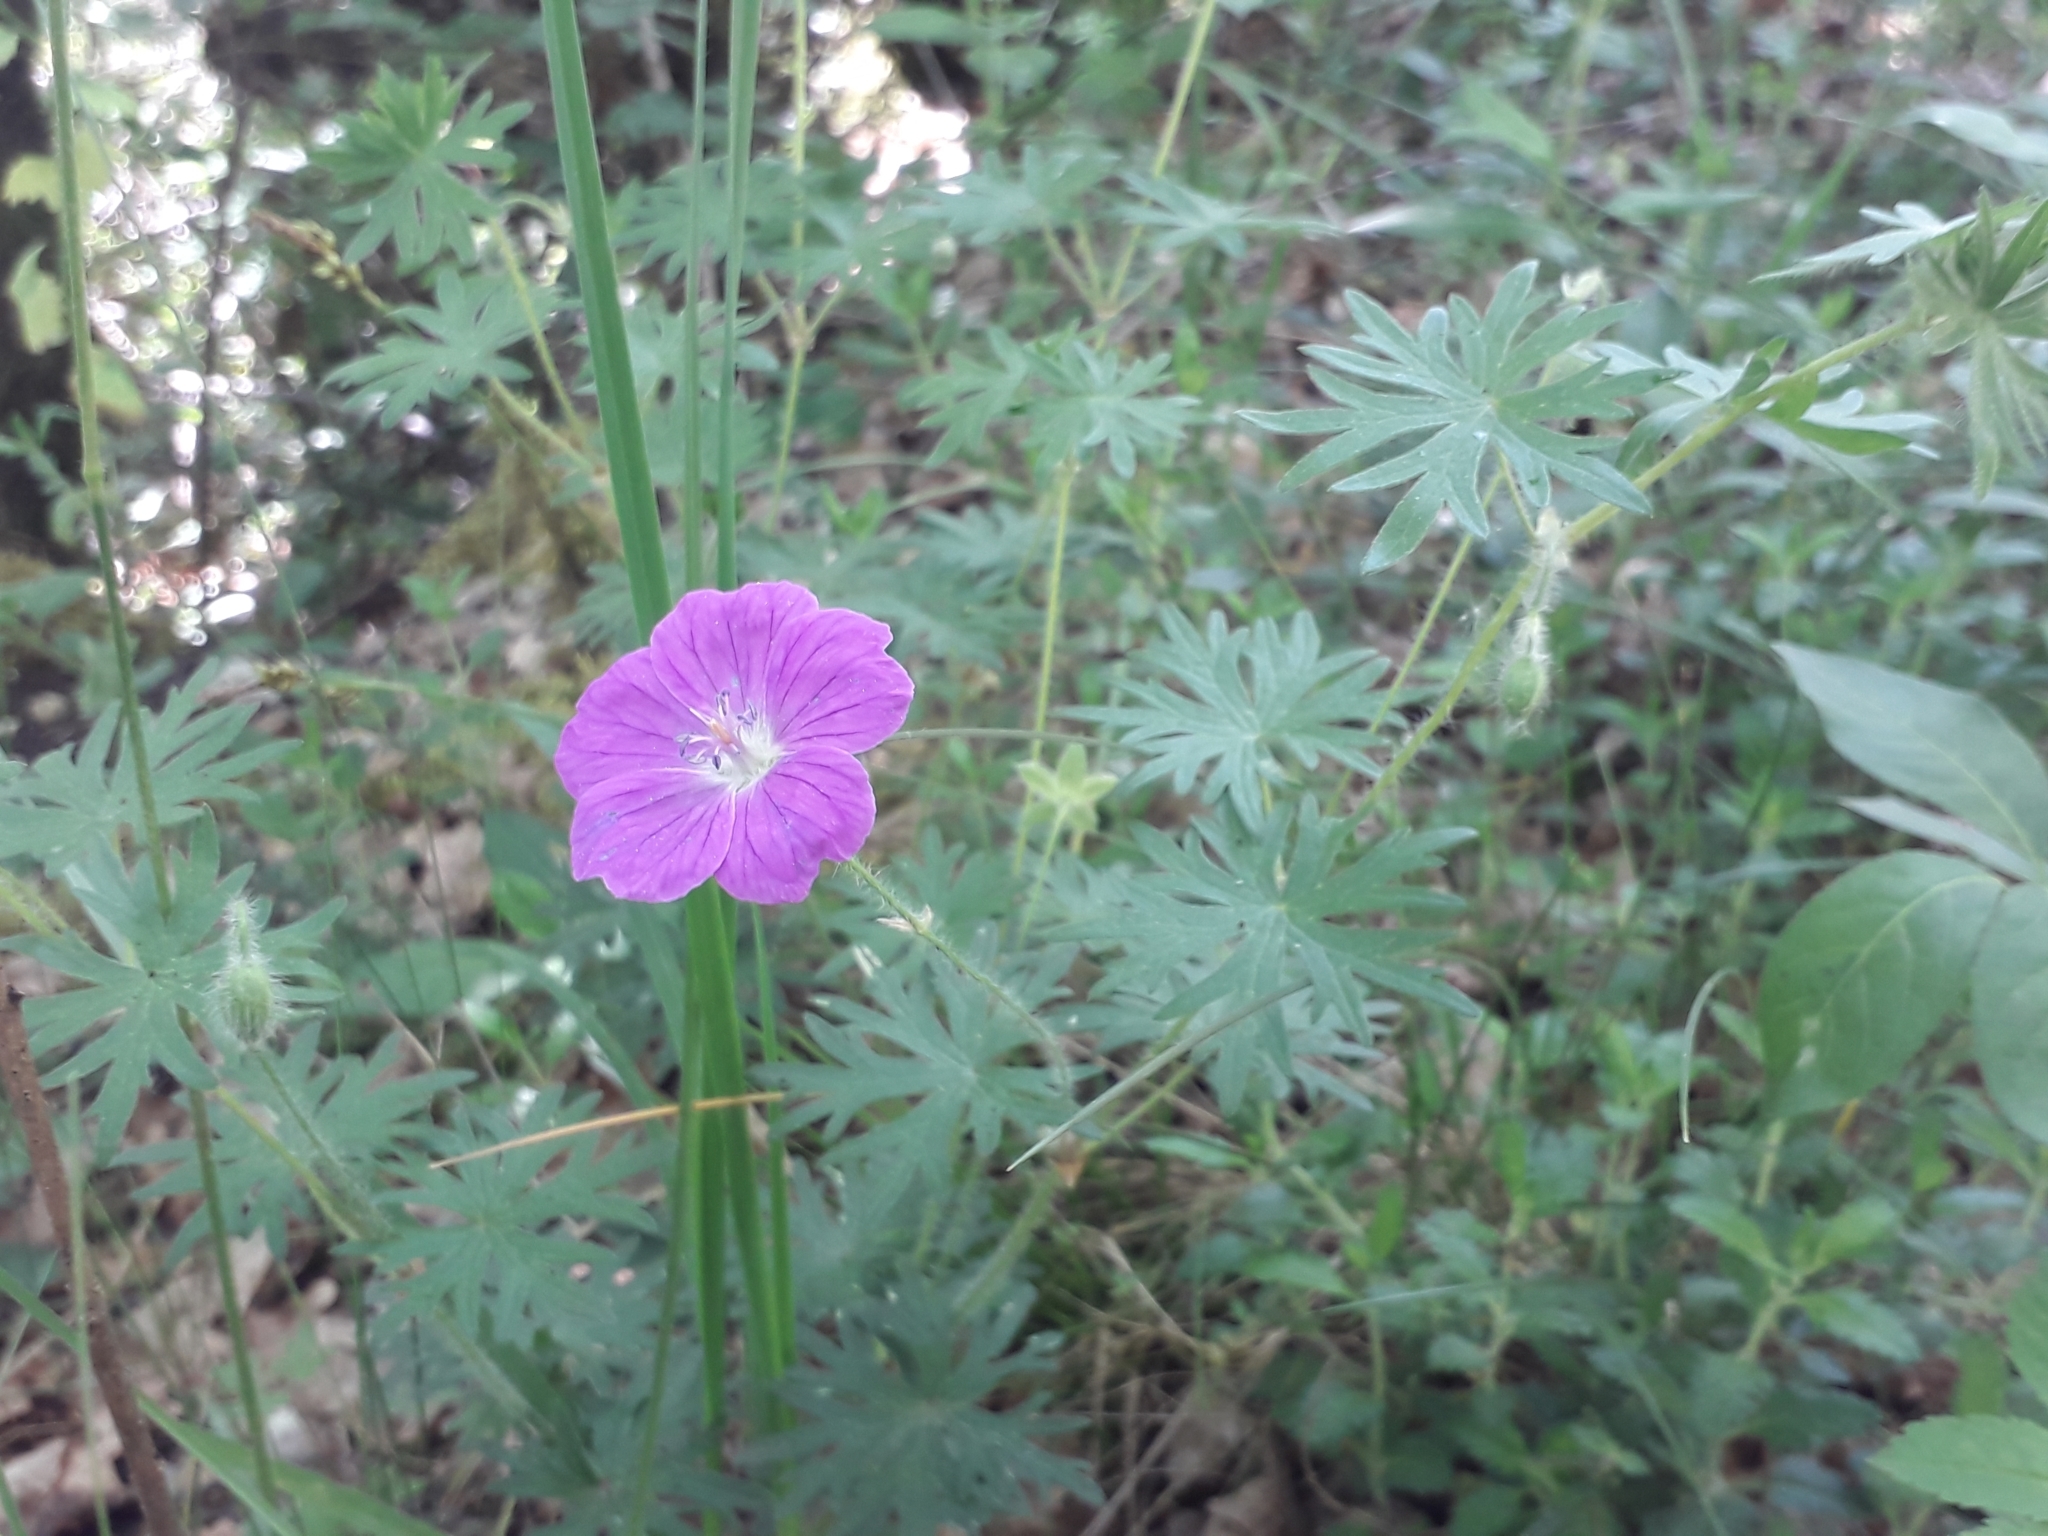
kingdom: Plantae
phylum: Tracheophyta
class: Magnoliopsida
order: Geraniales
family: Geraniaceae
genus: Geranium
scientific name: Geranium sanguineum
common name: Bloody crane's-bill
